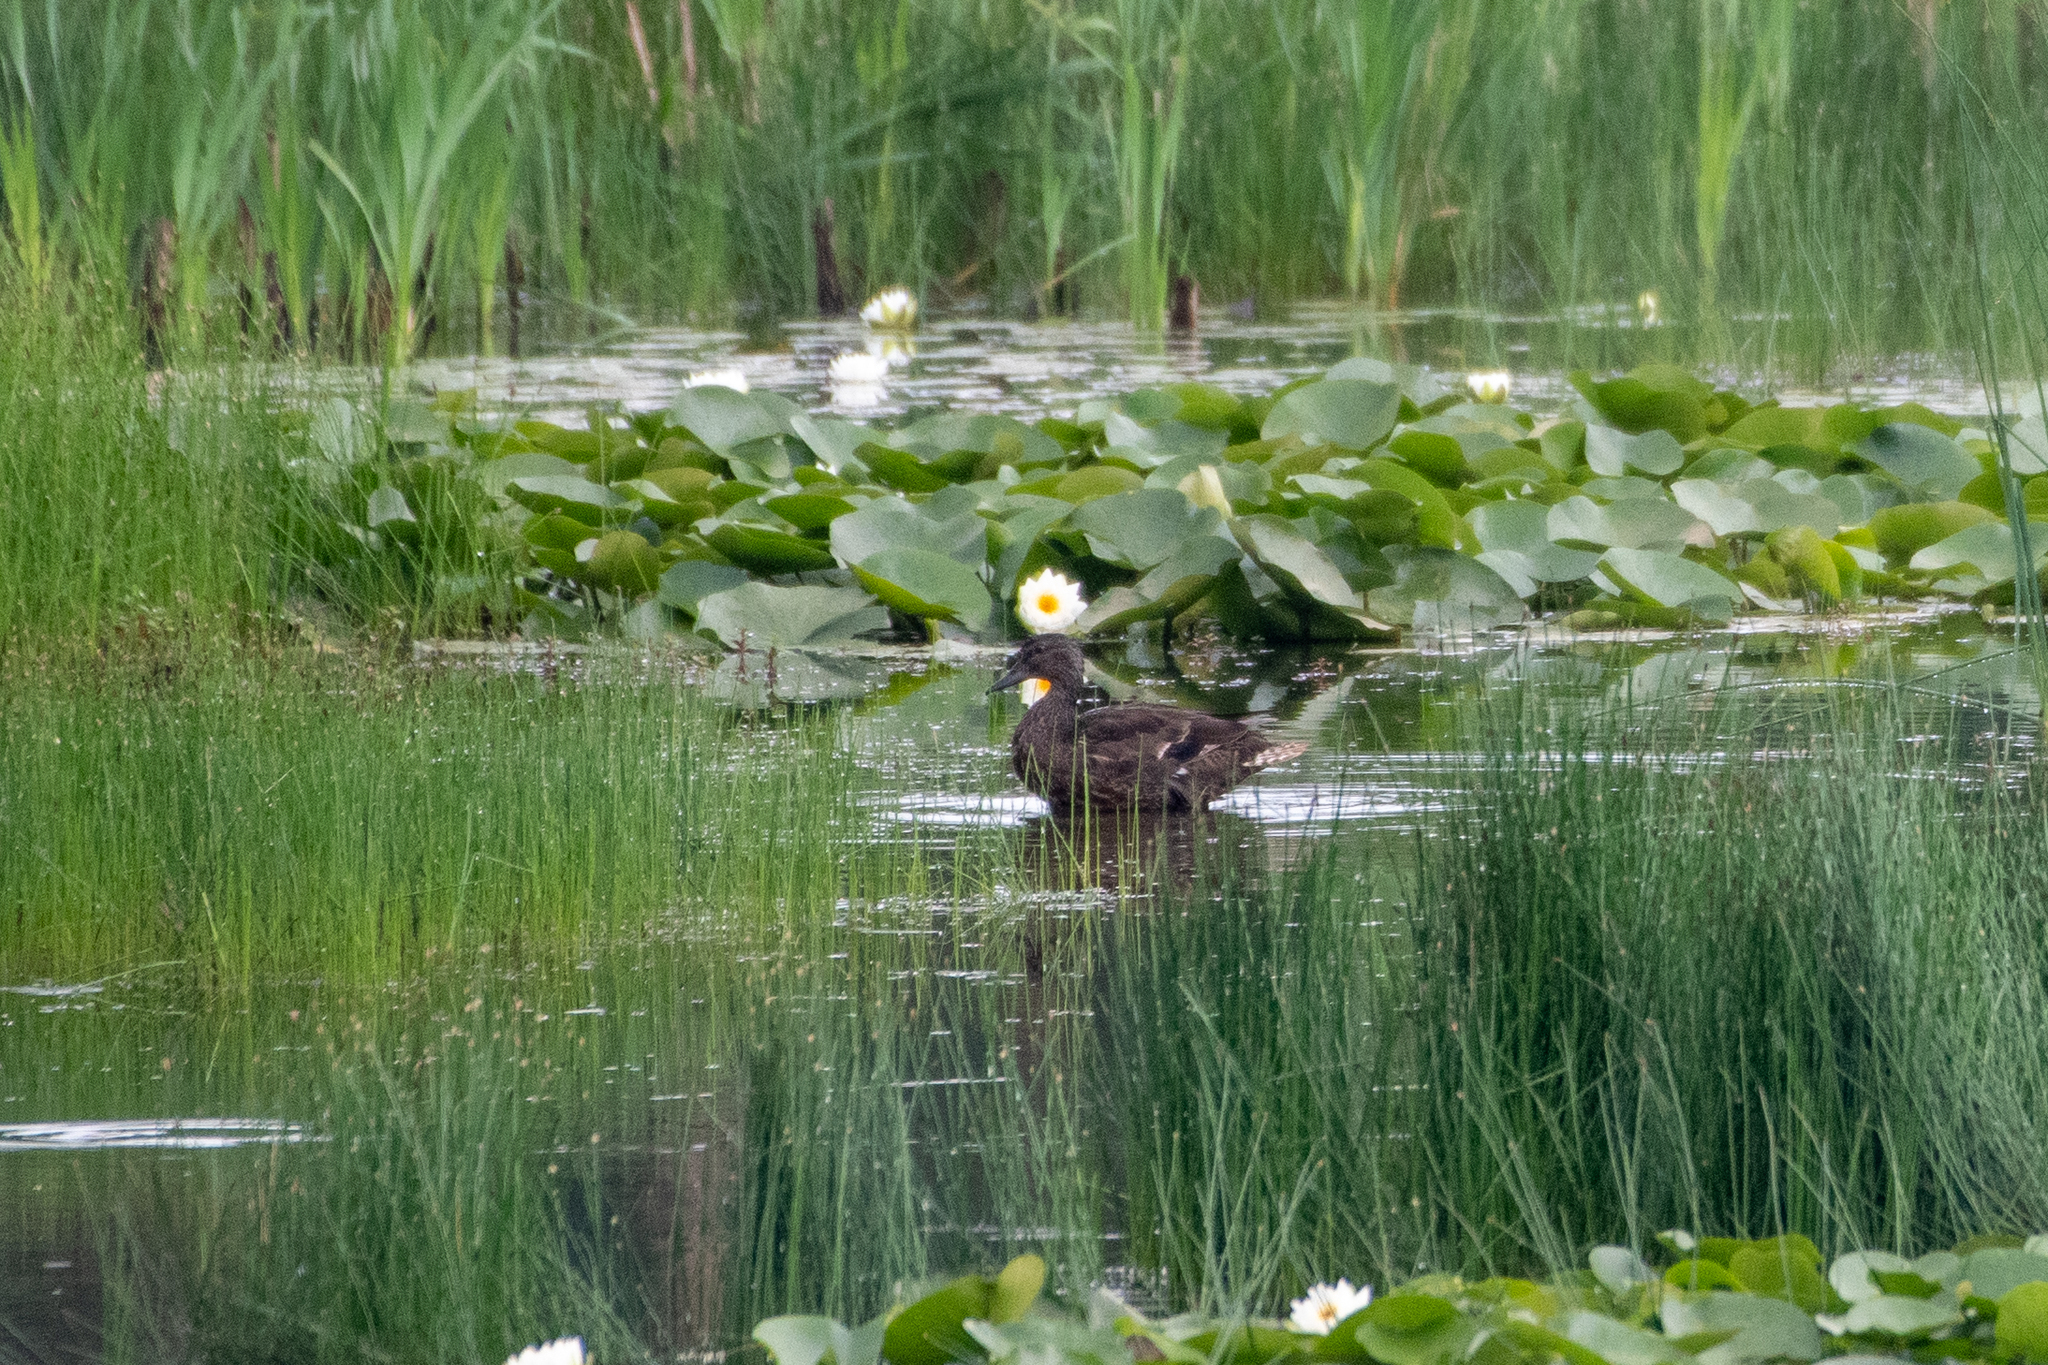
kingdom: Animalia
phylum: Chordata
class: Aves
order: Anseriformes
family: Anatidae
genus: Anas
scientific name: Anas platyrhynchos
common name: Mallard
